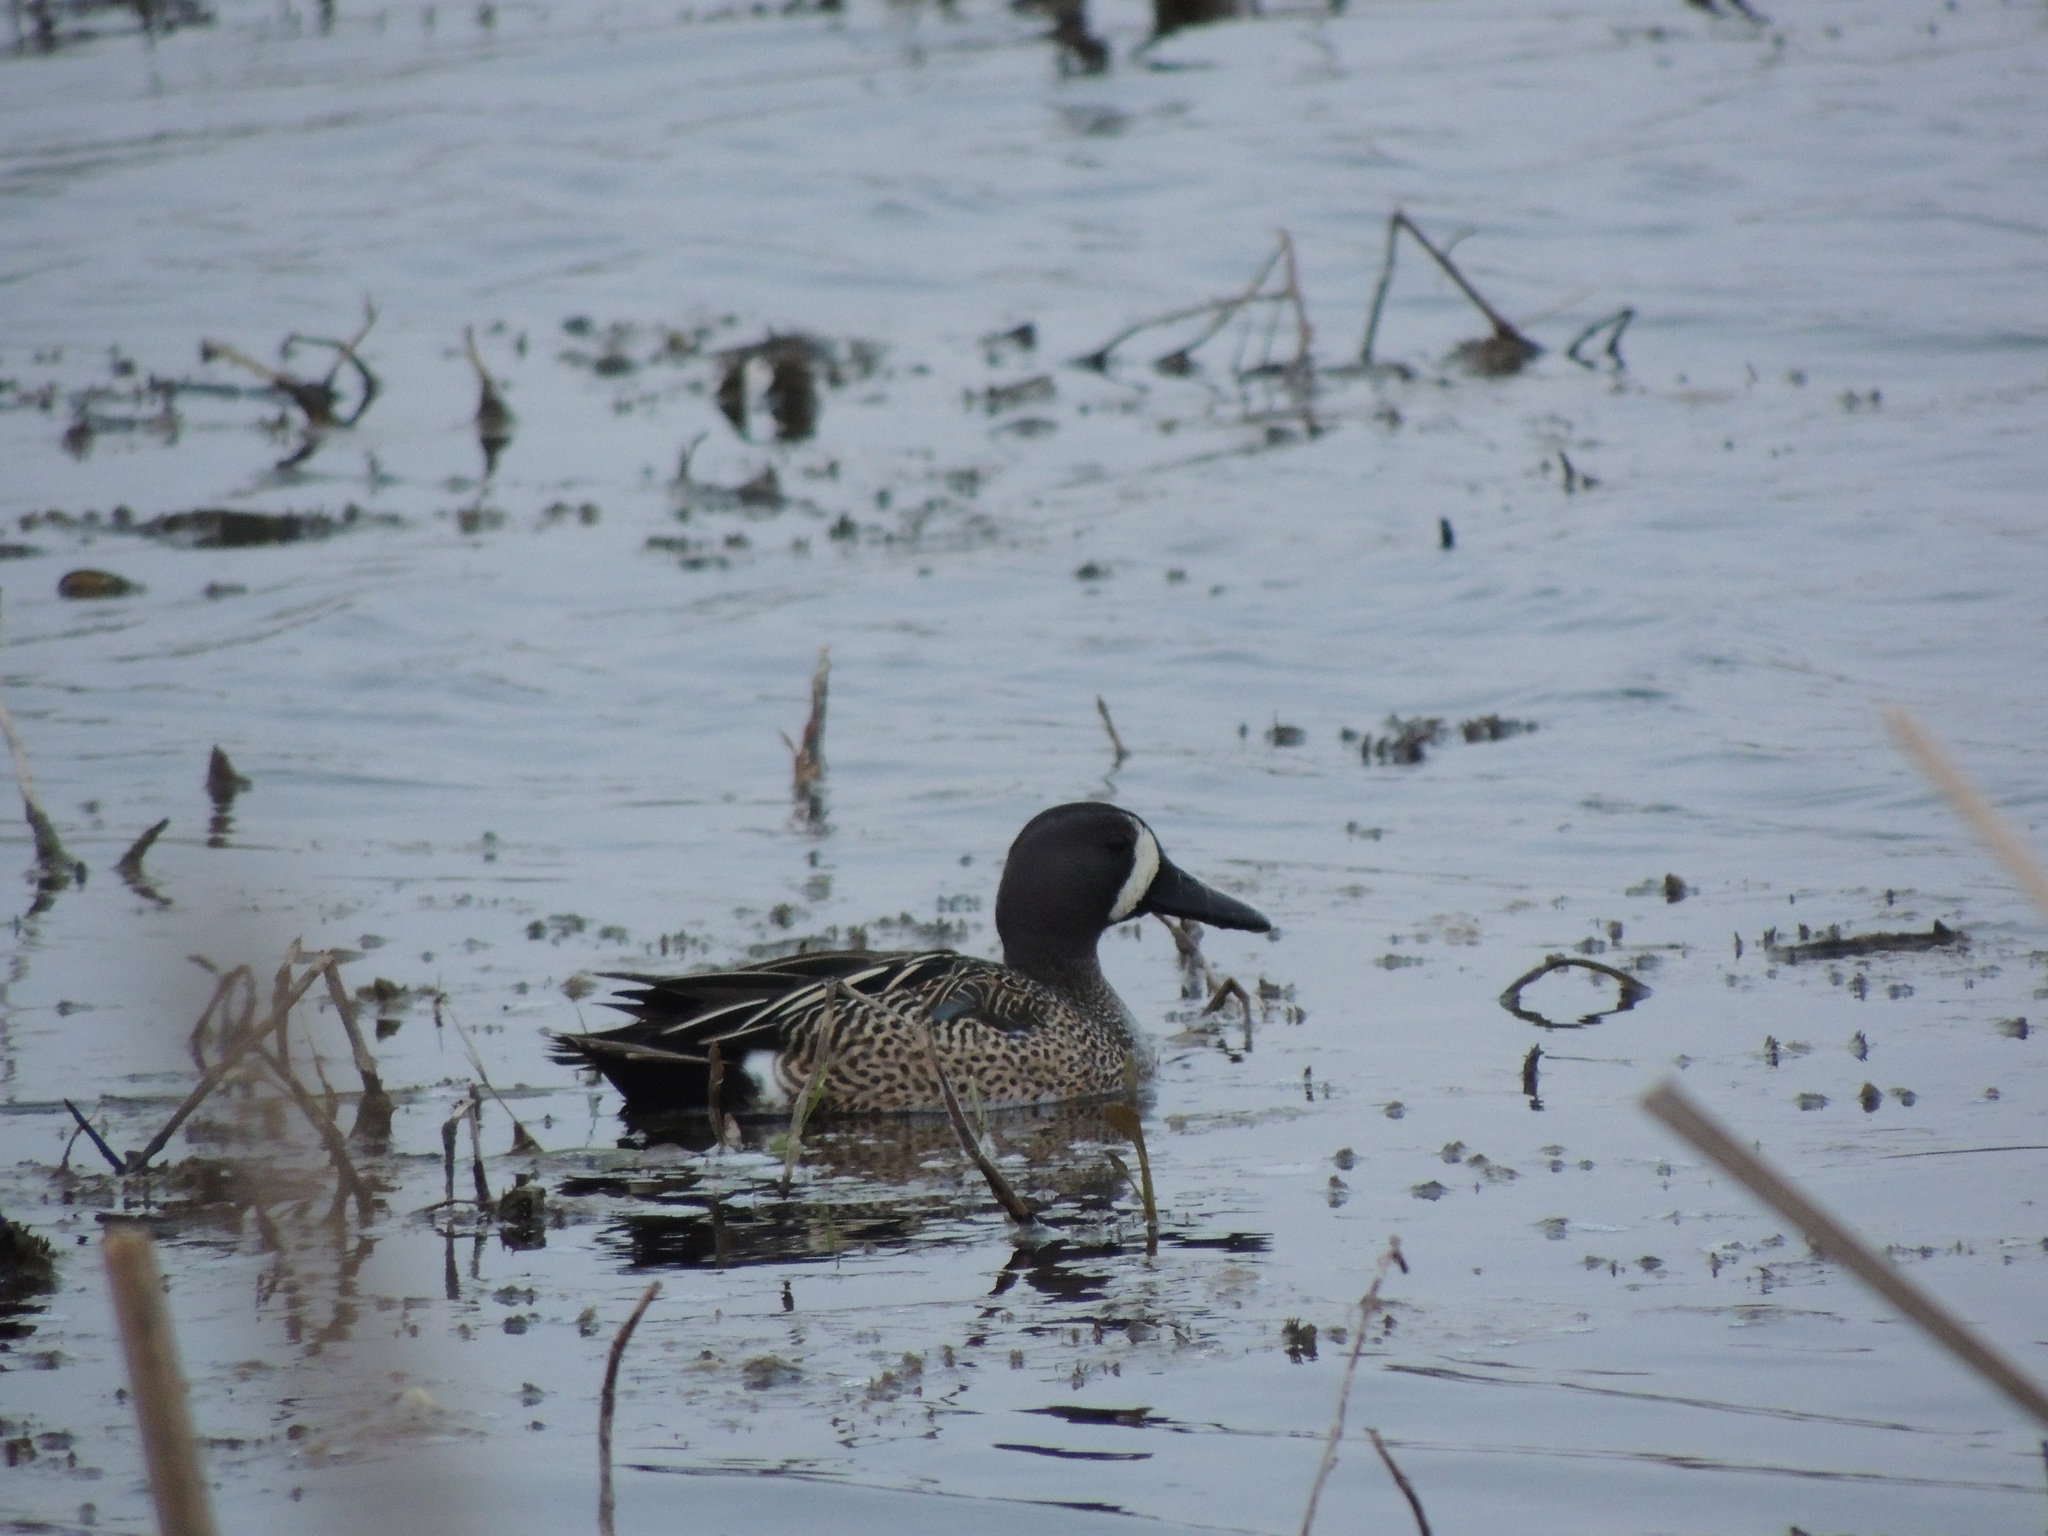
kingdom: Animalia
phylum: Chordata
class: Aves
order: Anseriformes
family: Anatidae
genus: Spatula
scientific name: Spatula discors
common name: Blue-winged teal
